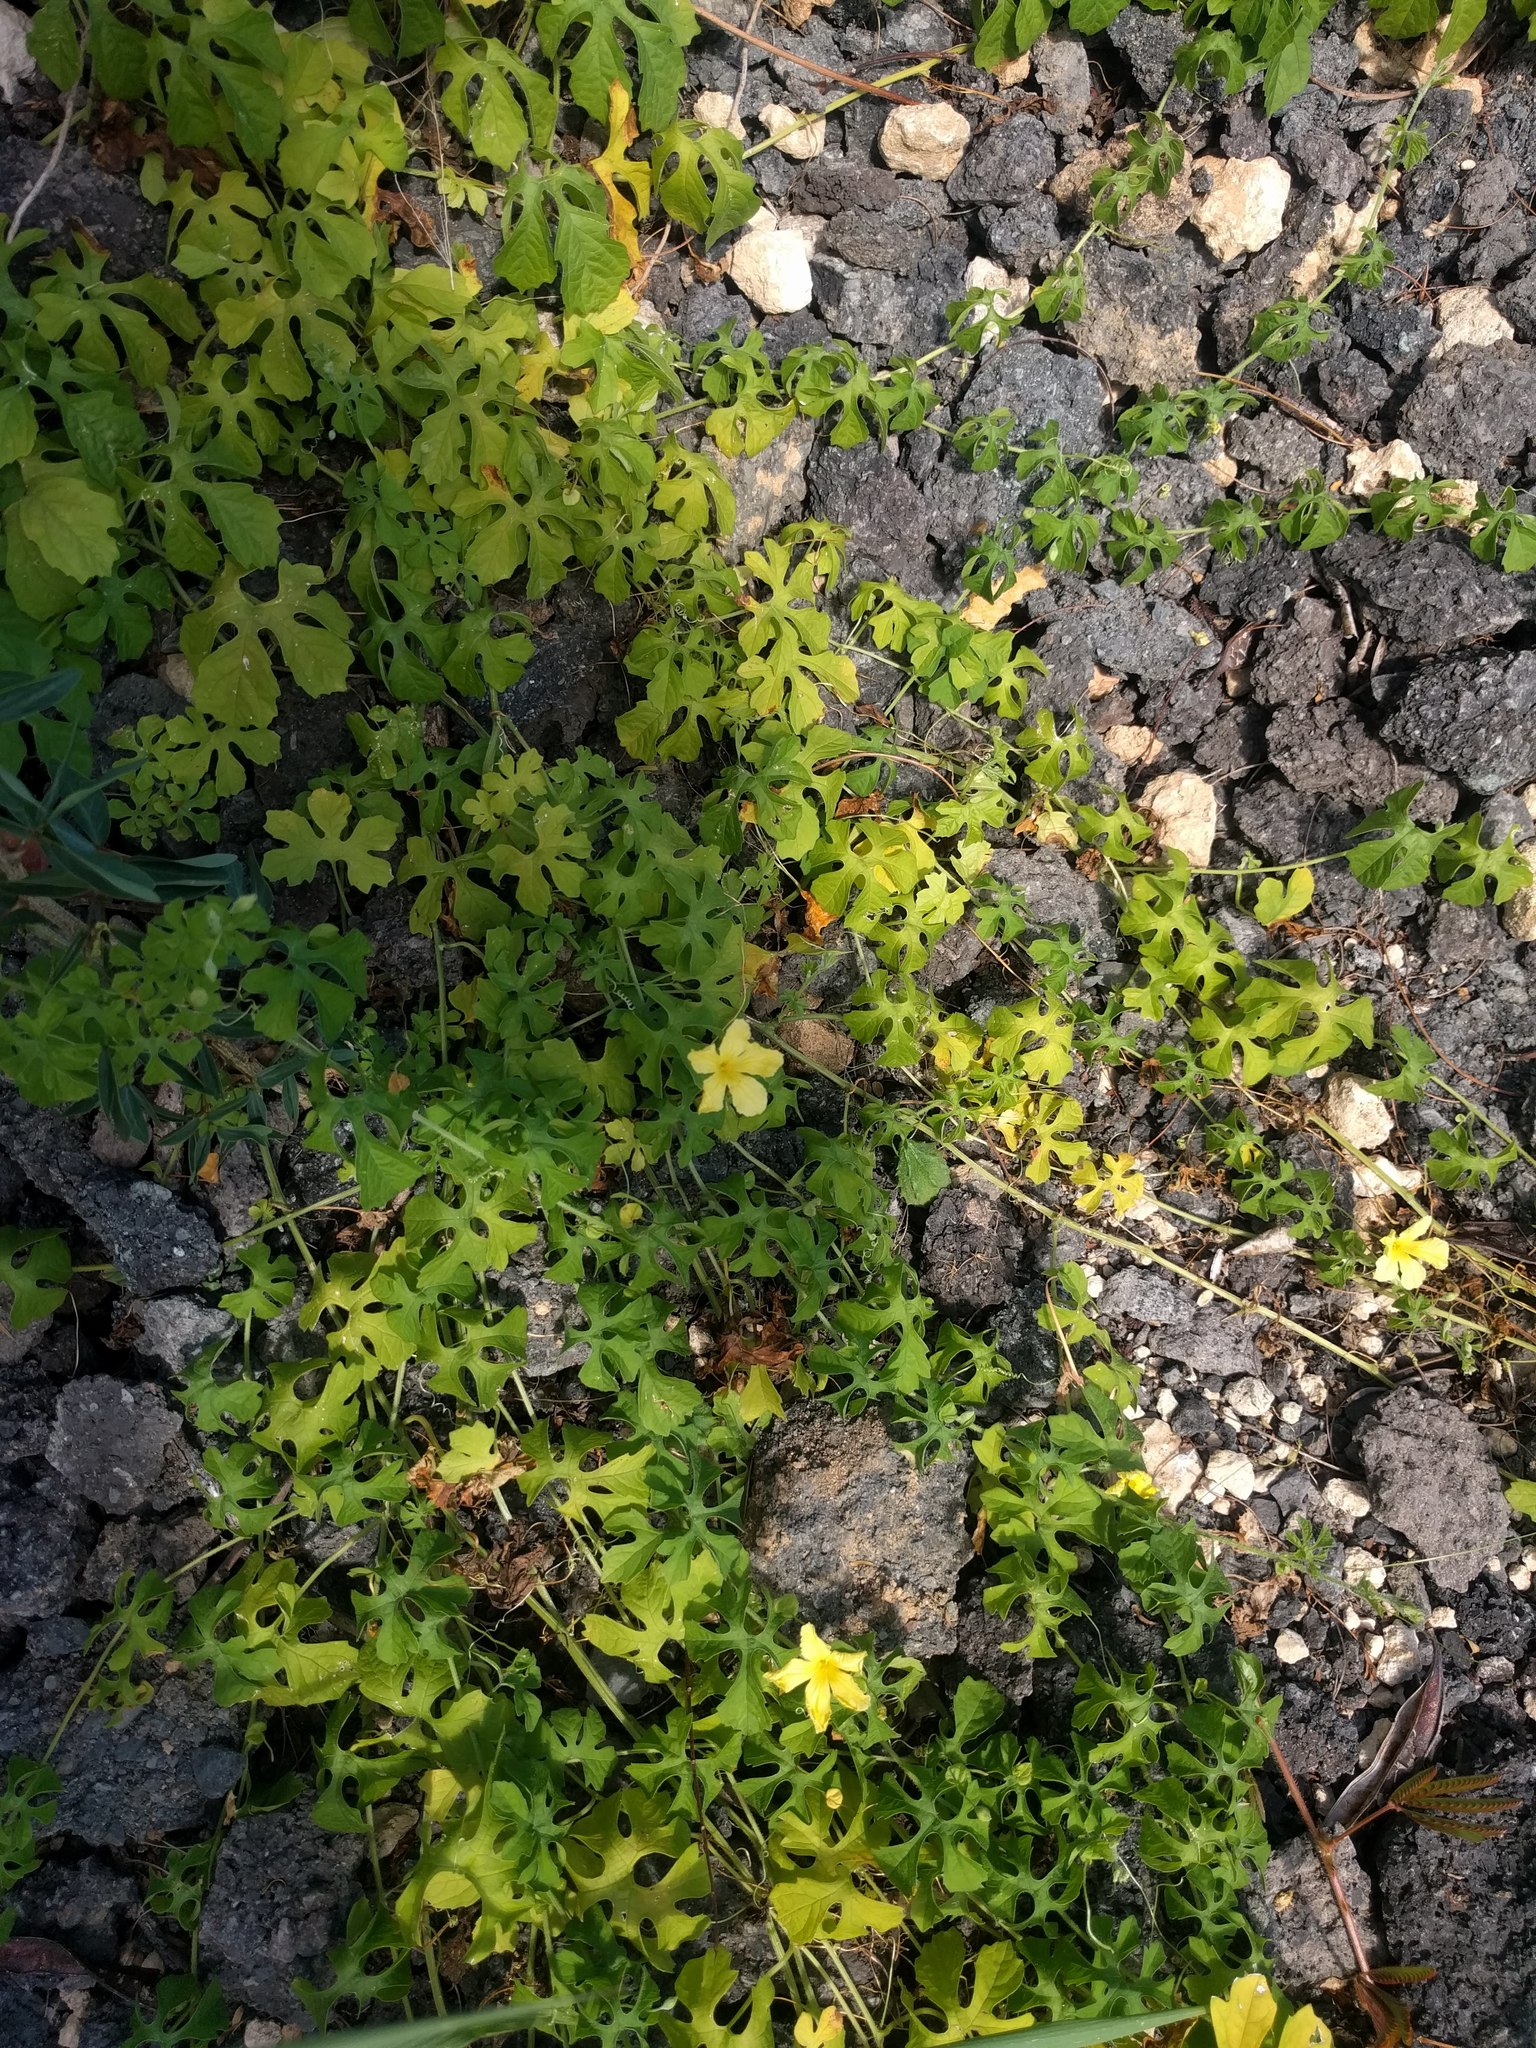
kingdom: Plantae
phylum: Tracheophyta
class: Magnoliopsida
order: Cucurbitales
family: Cucurbitaceae
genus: Momordica
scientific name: Momordica charantia
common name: Balsampear
